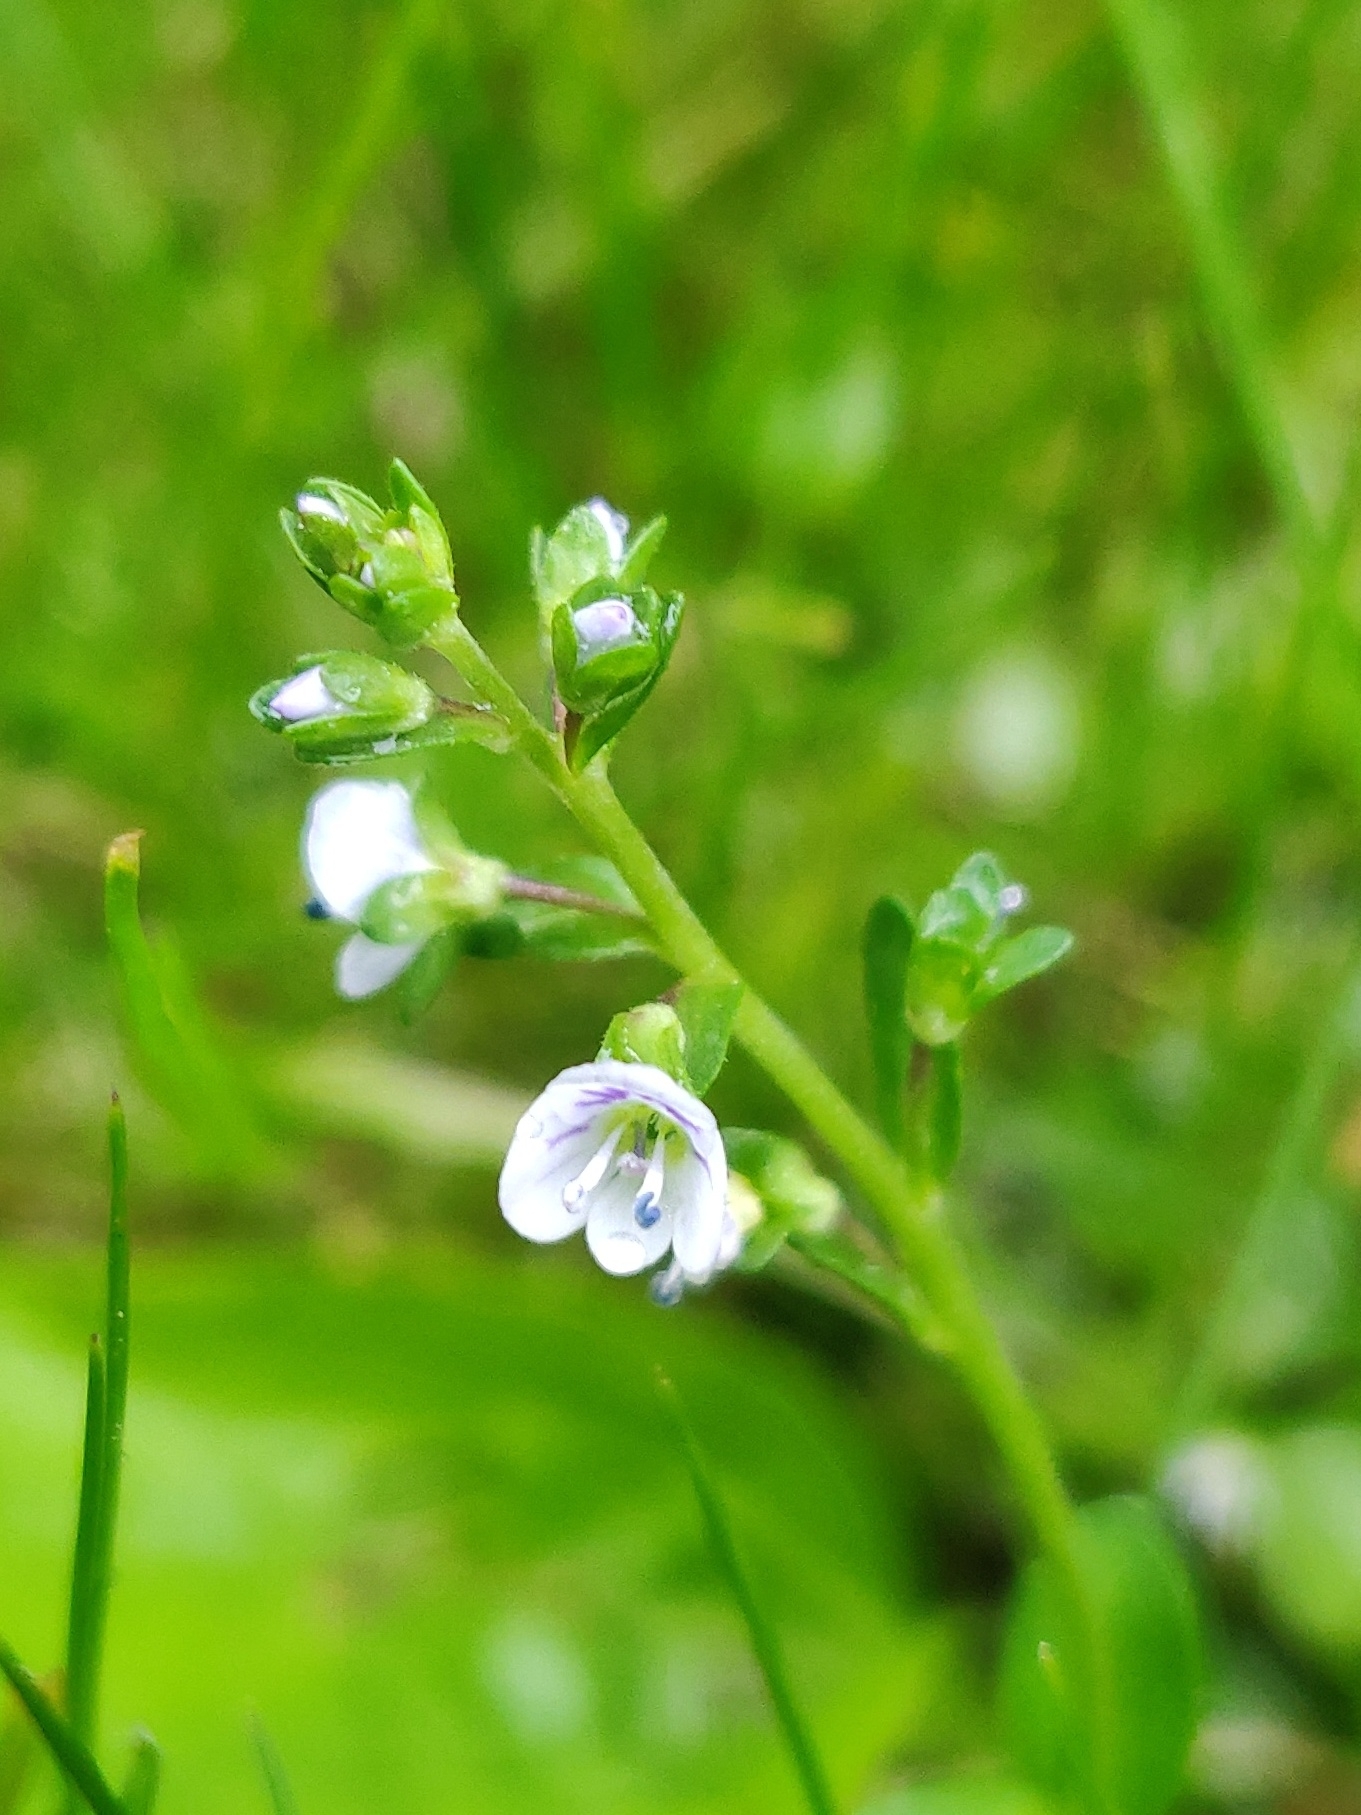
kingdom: Plantae
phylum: Tracheophyta
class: Magnoliopsida
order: Lamiales
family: Plantaginaceae
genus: Veronica
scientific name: Veronica serpyllifolia
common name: Thyme-leaved speedwell
